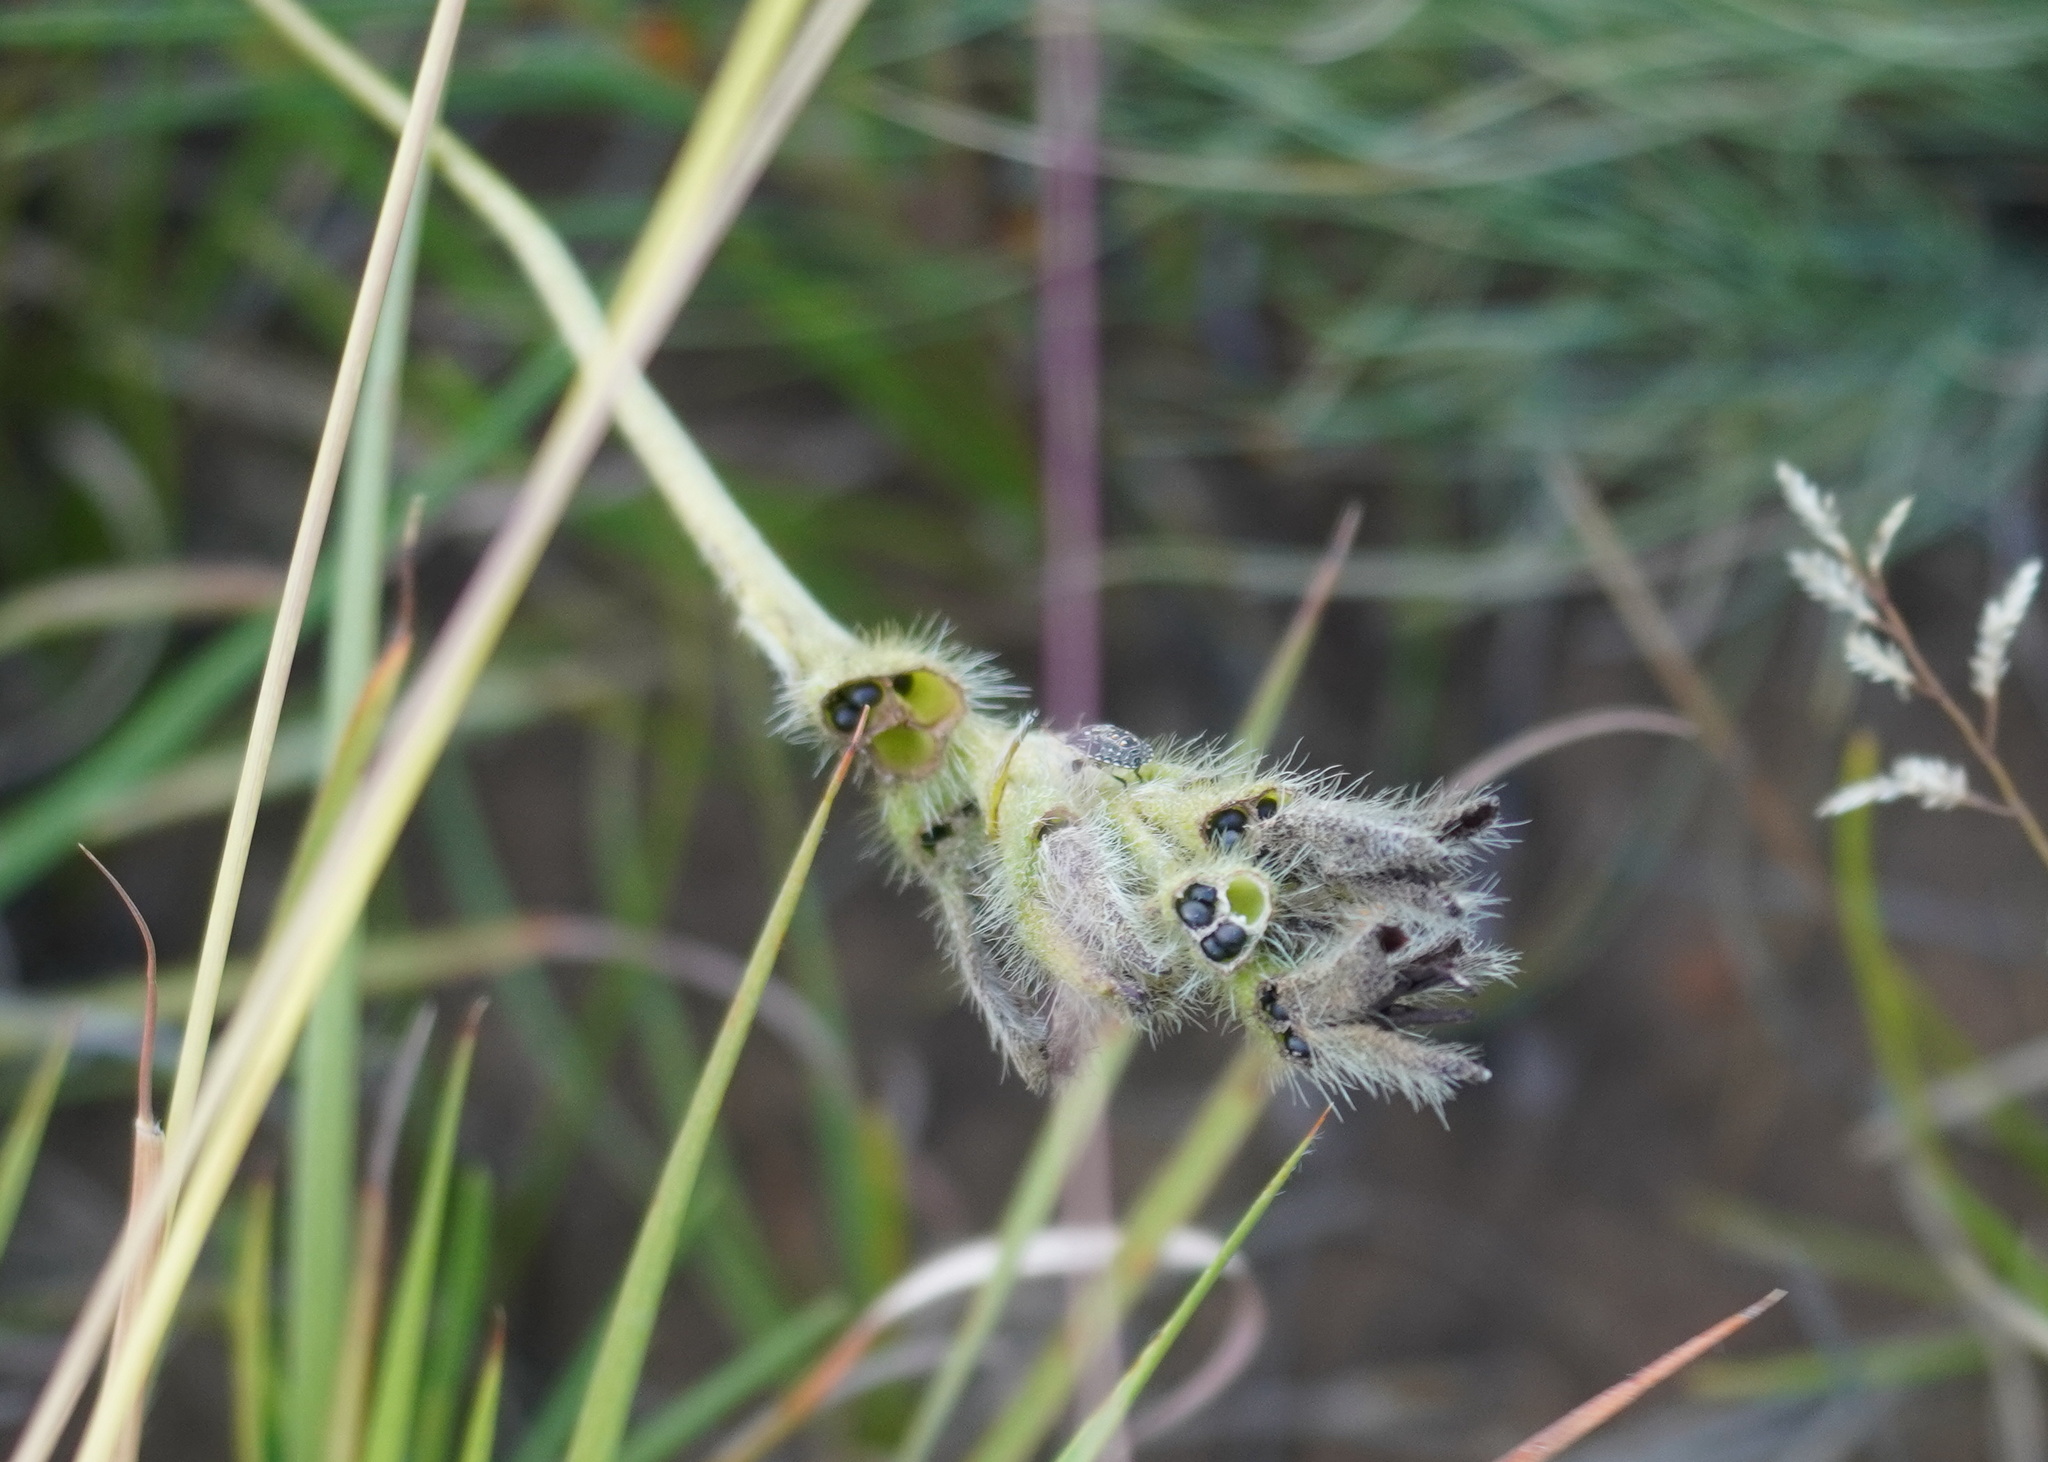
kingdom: Plantae
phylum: Tracheophyta
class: Liliopsida
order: Asparagales
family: Hypoxidaceae
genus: Hypoxis
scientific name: Hypoxis galpinii
